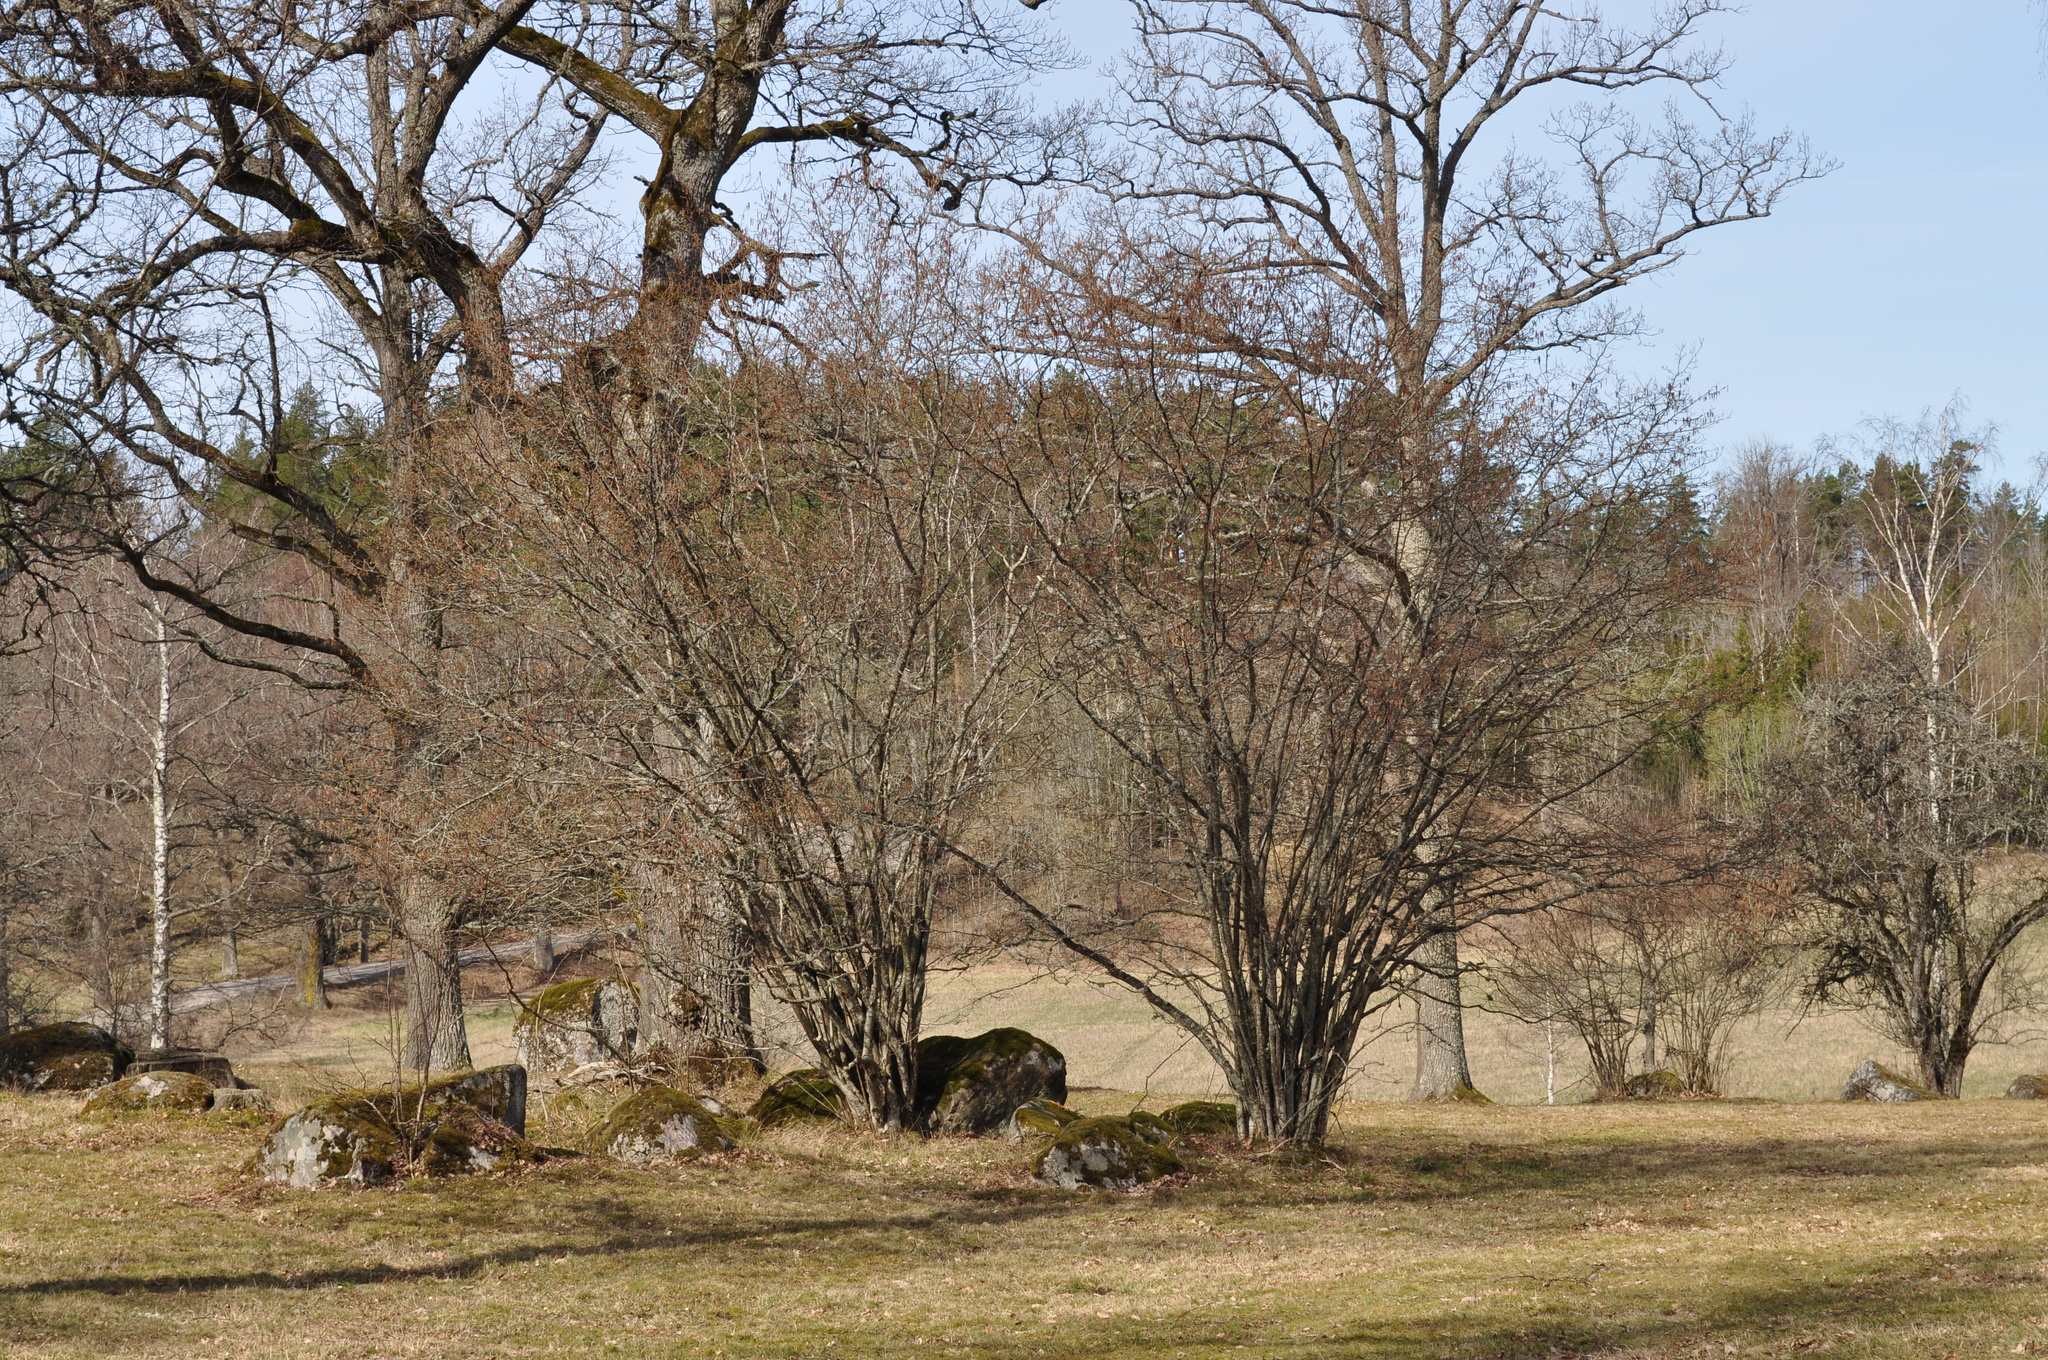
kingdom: Plantae
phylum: Tracheophyta
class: Magnoliopsida
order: Fagales
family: Betulaceae
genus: Corylus
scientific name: Corylus avellana
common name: European hazel
